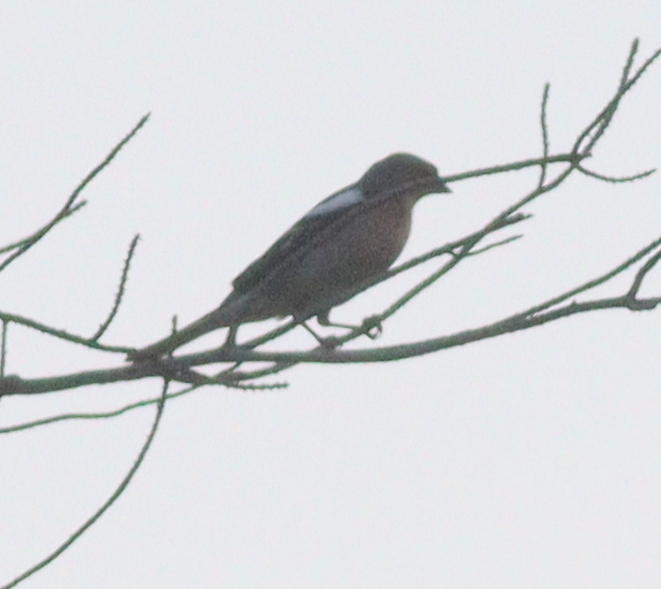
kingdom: Animalia
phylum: Chordata
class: Aves
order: Passeriformes
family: Fringillidae
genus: Fringilla
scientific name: Fringilla coelebs
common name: Common chaffinch
